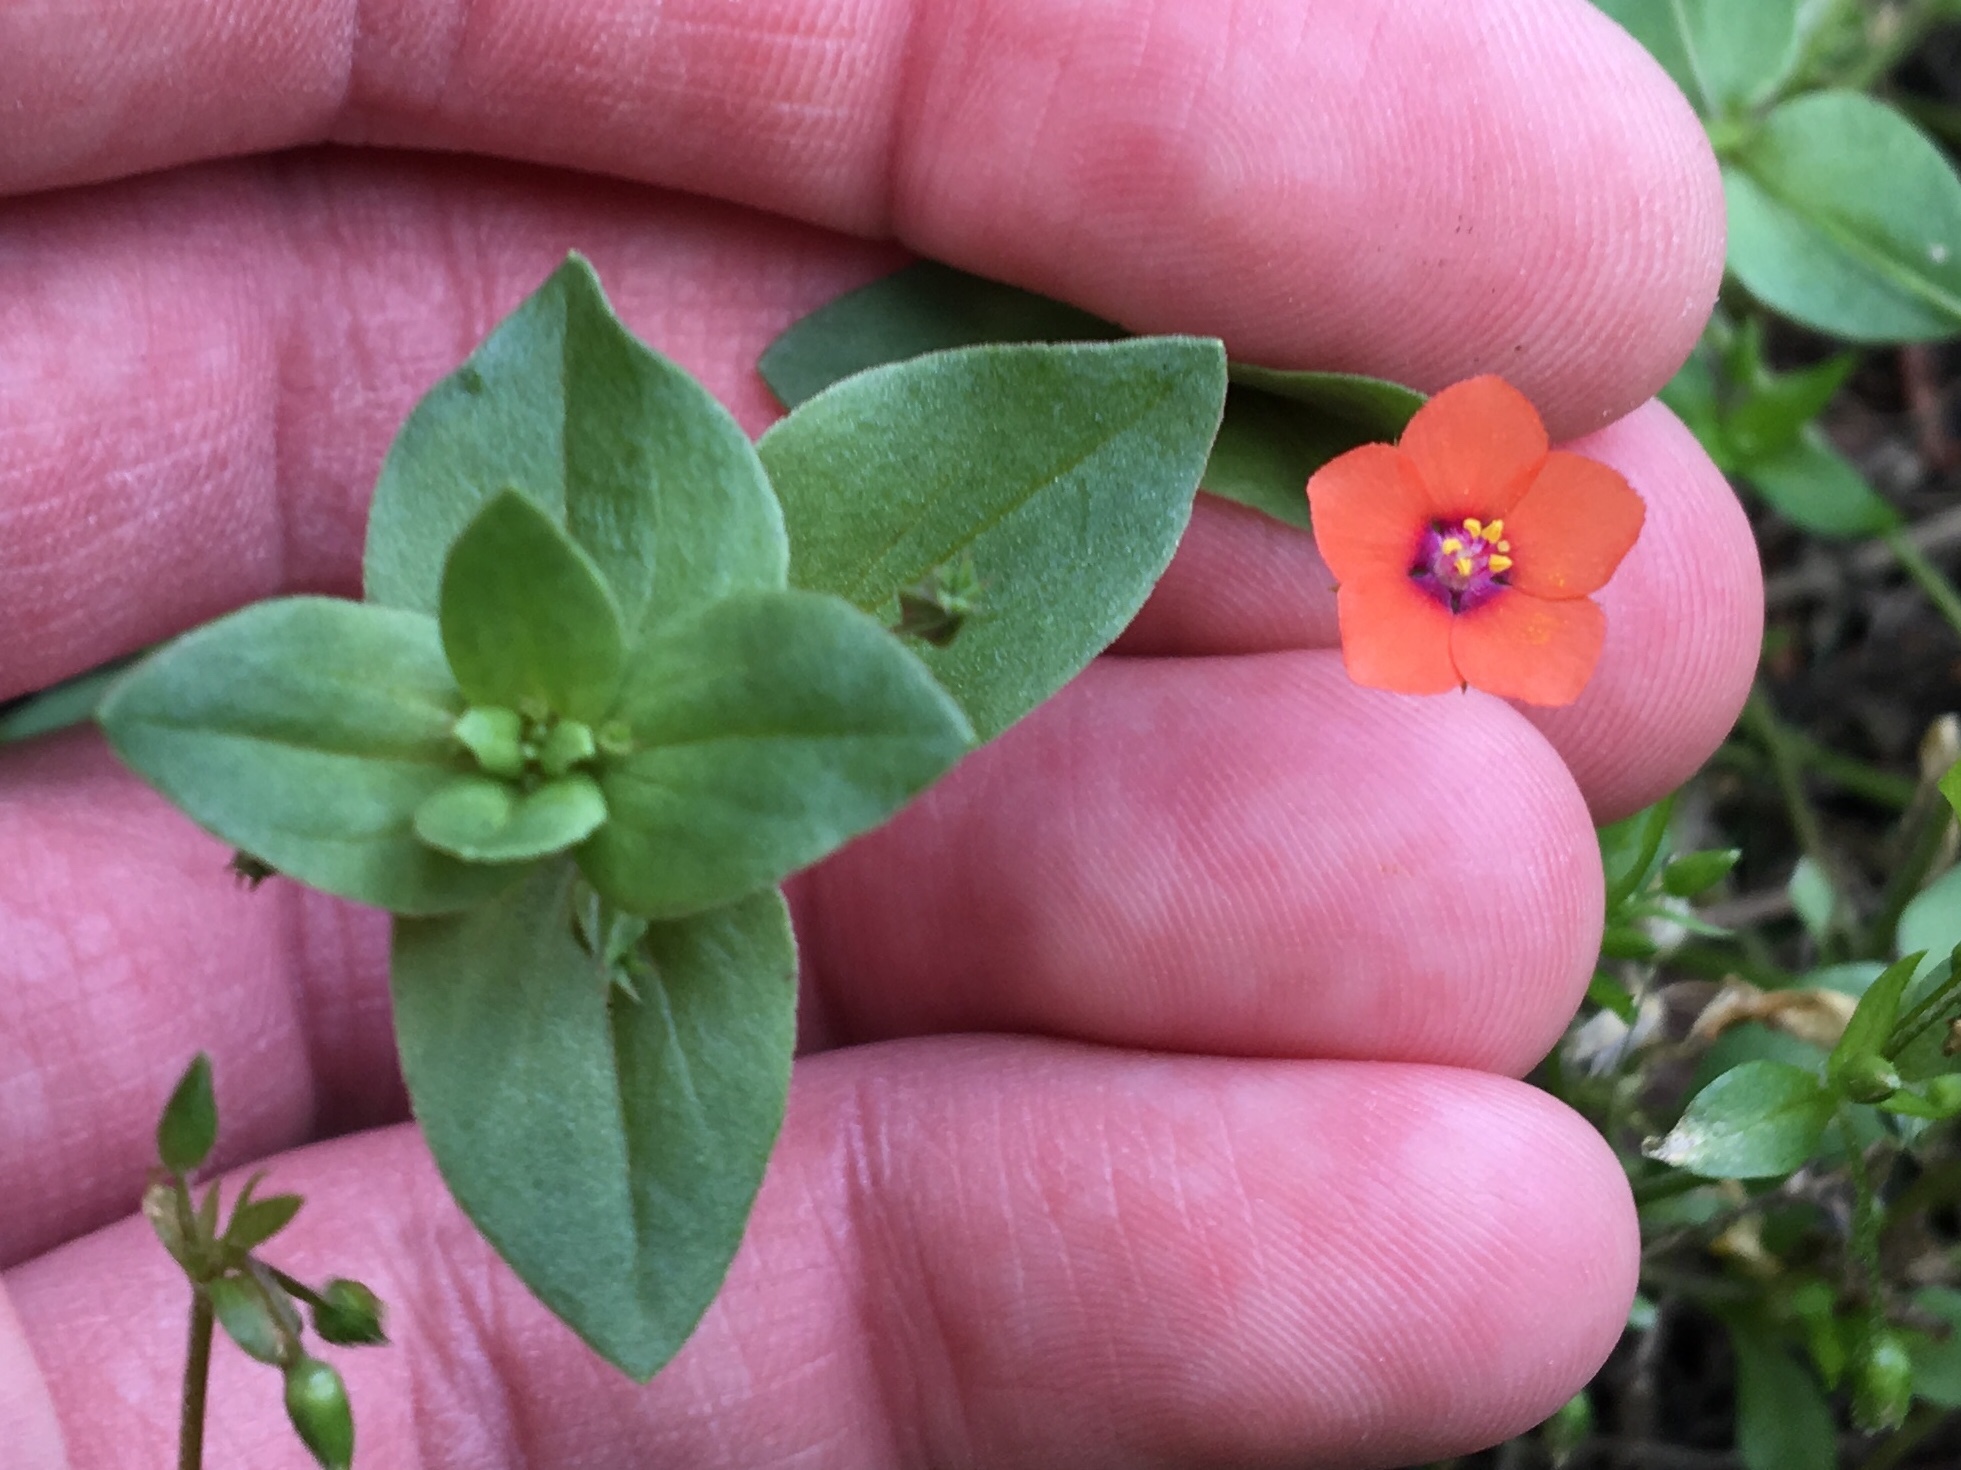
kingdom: Plantae
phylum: Tracheophyta
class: Magnoliopsida
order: Ericales
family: Primulaceae
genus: Lysimachia
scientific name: Lysimachia arvensis
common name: Scarlet pimpernel
